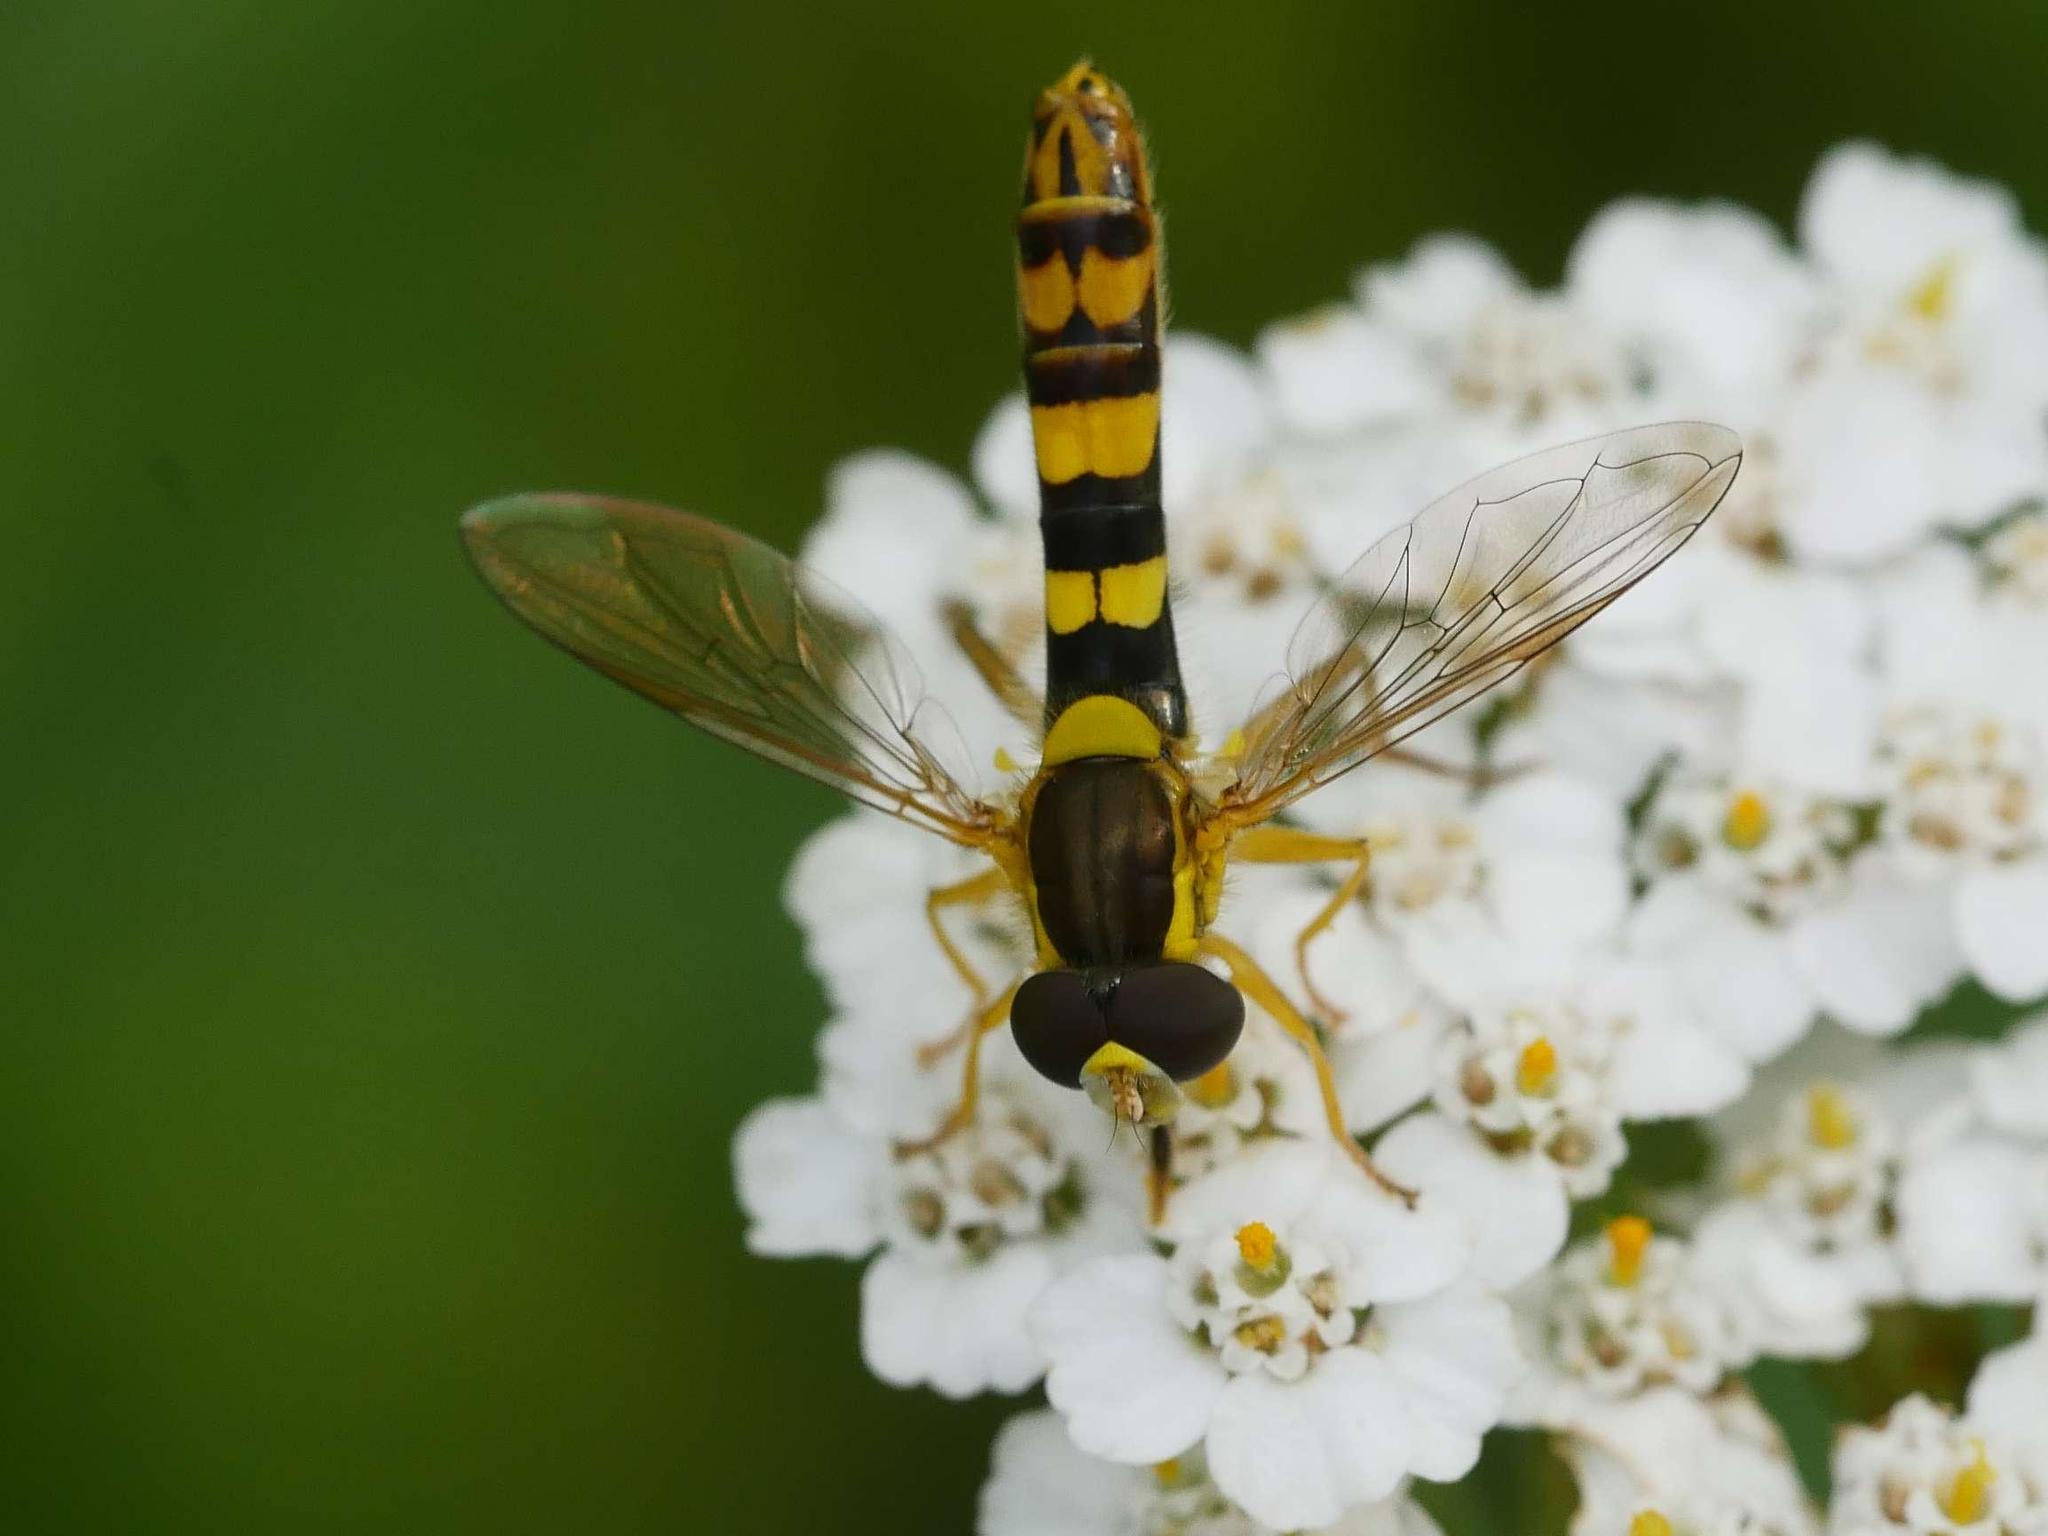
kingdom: Animalia
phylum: Arthropoda
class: Insecta
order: Diptera
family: Syrphidae
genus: Sphaerophoria
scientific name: Sphaerophoria scripta
